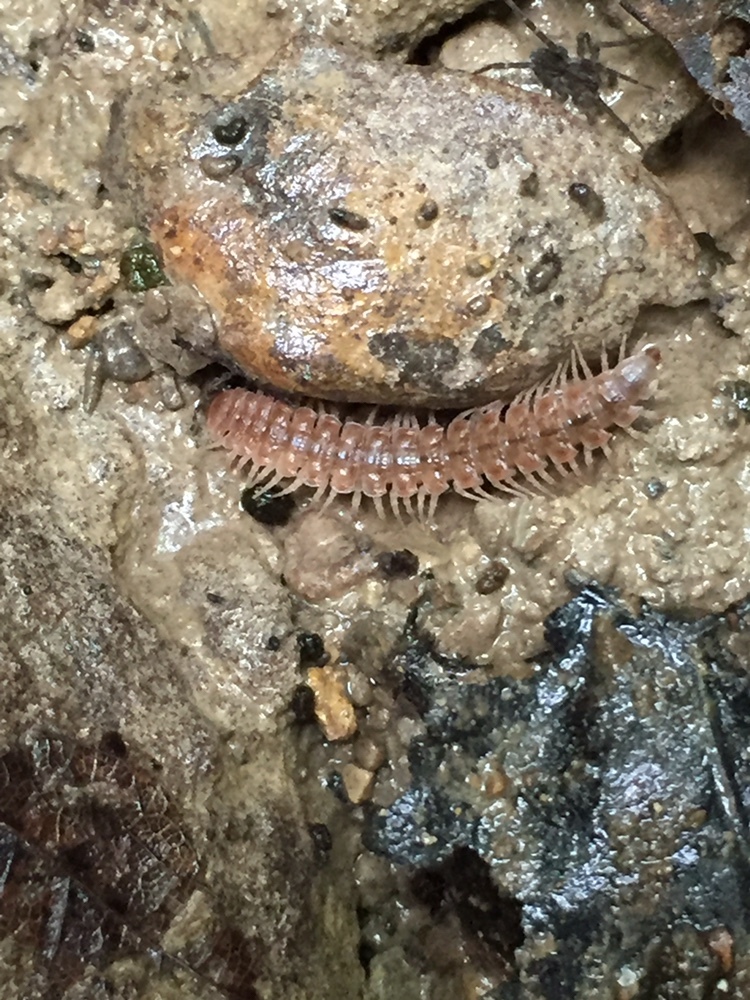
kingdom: Animalia
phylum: Arthropoda
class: Diplopoda
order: Polydesmida
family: Polydesmidae
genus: Pseudopolydesmus
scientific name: Pseudopolydesmus serratus
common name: Common pink flat-back millipede
